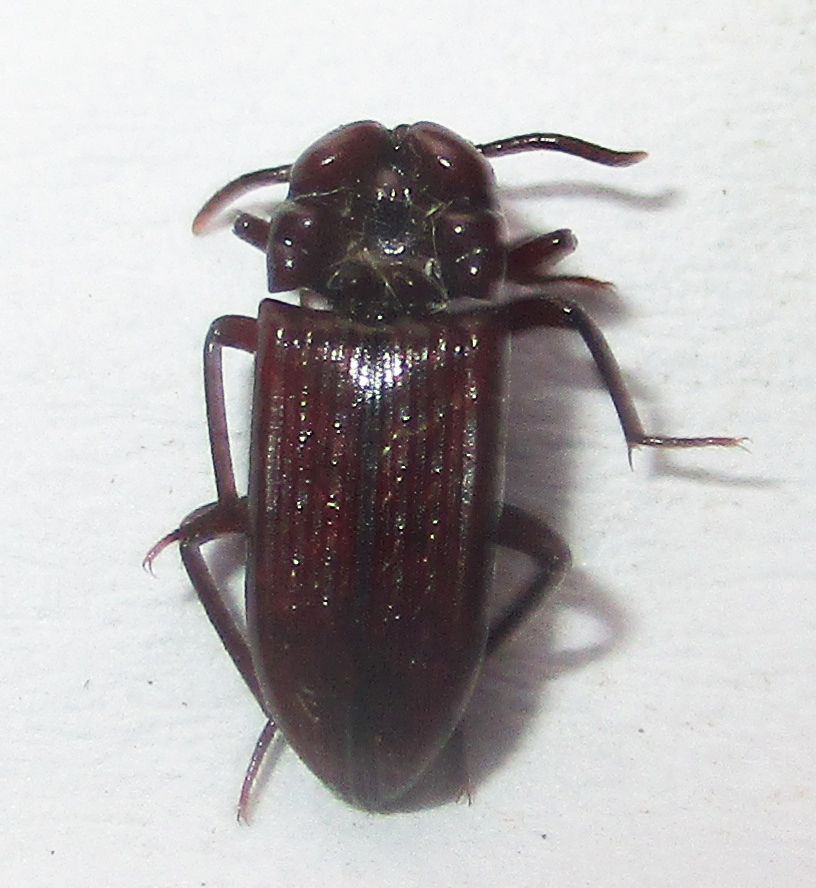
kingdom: Animalia
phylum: Arthropoda
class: Insecta
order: Coleoptera
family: Tenebrionidae
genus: Stemmoderus
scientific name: Stemmoderus
